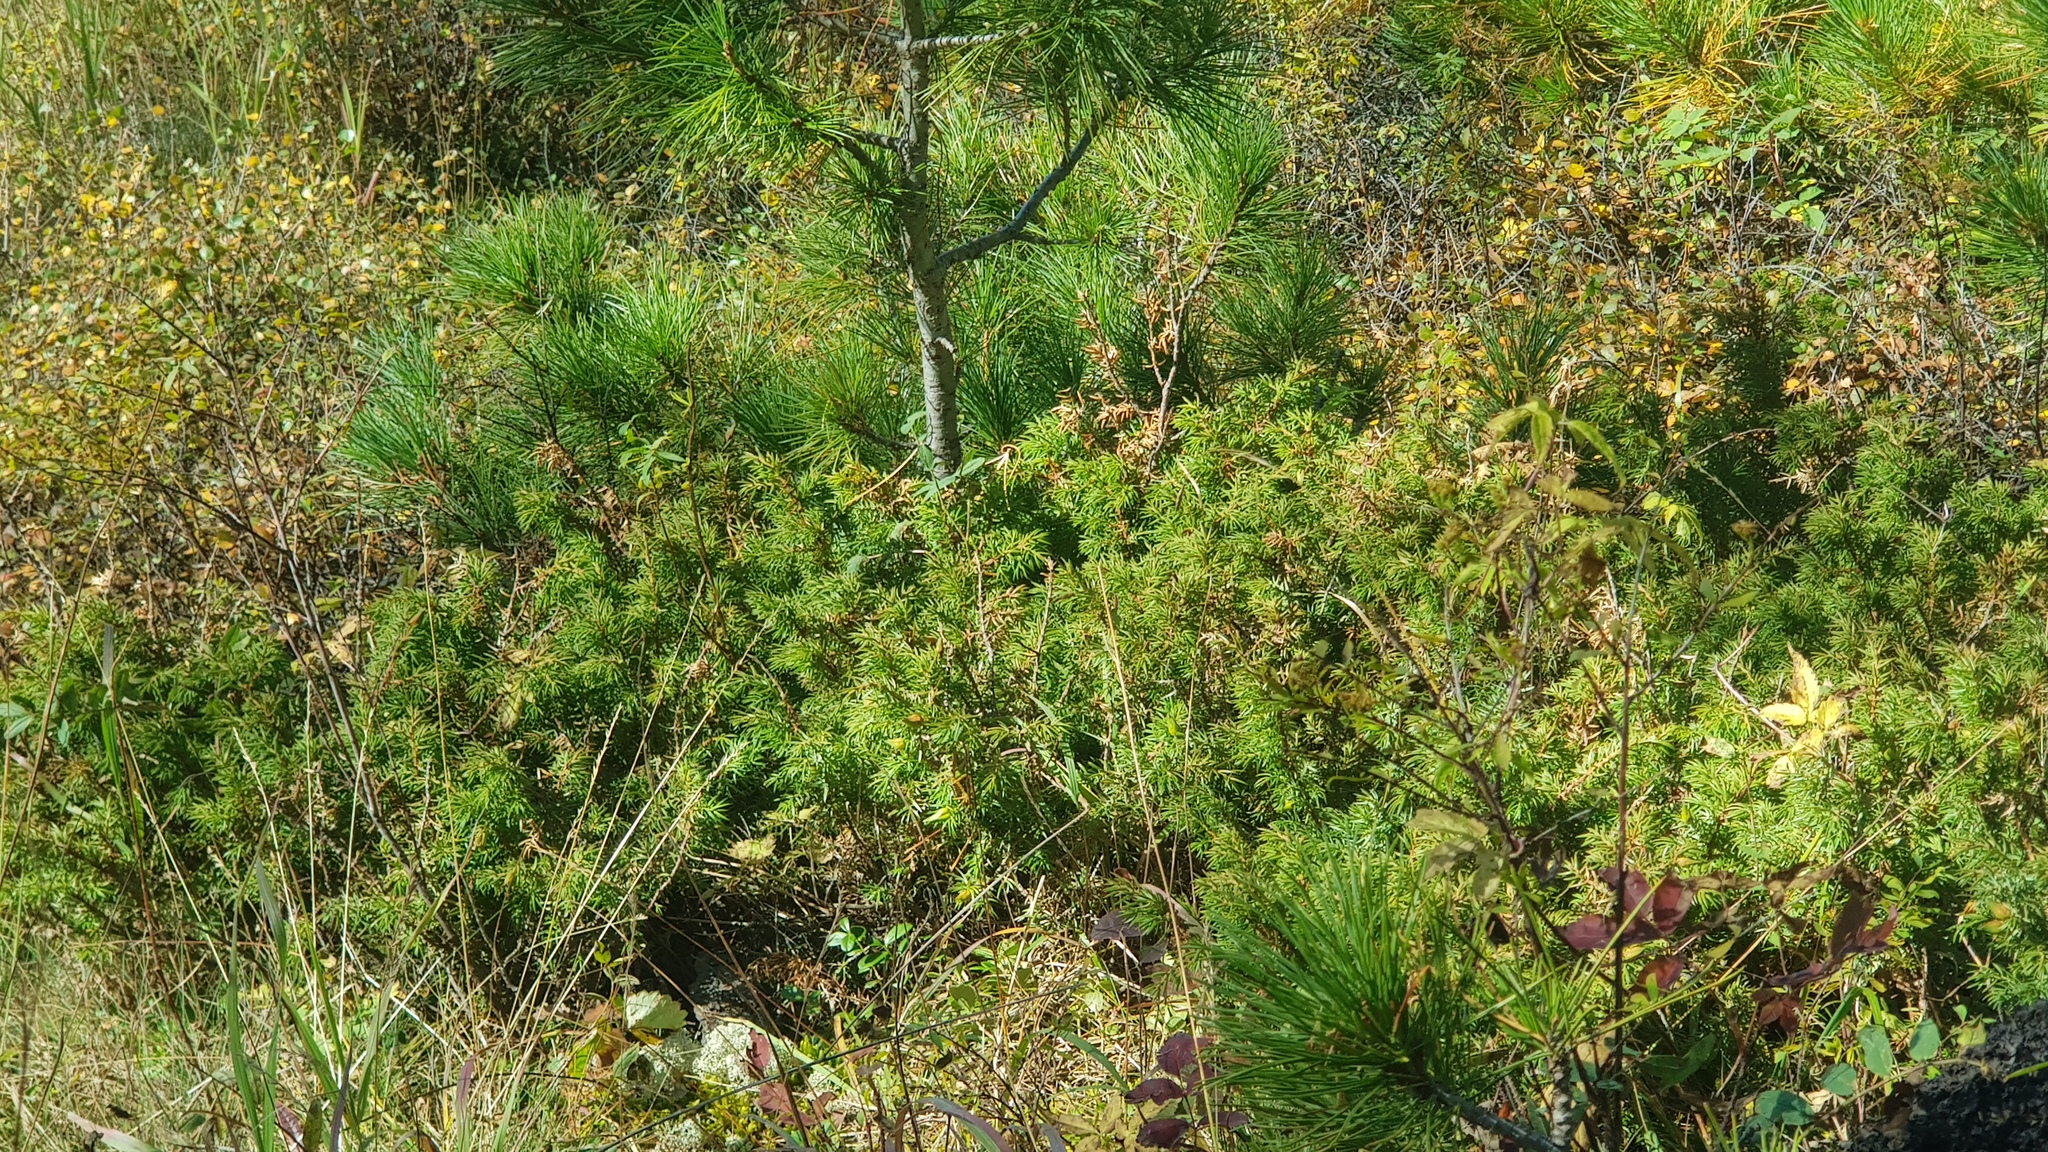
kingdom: Plantae
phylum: Tracheophyta
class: Pinopsida
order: Pinales
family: Cupressaceae
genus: Juniperus
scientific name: Juniperus communis
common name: Common juniper
